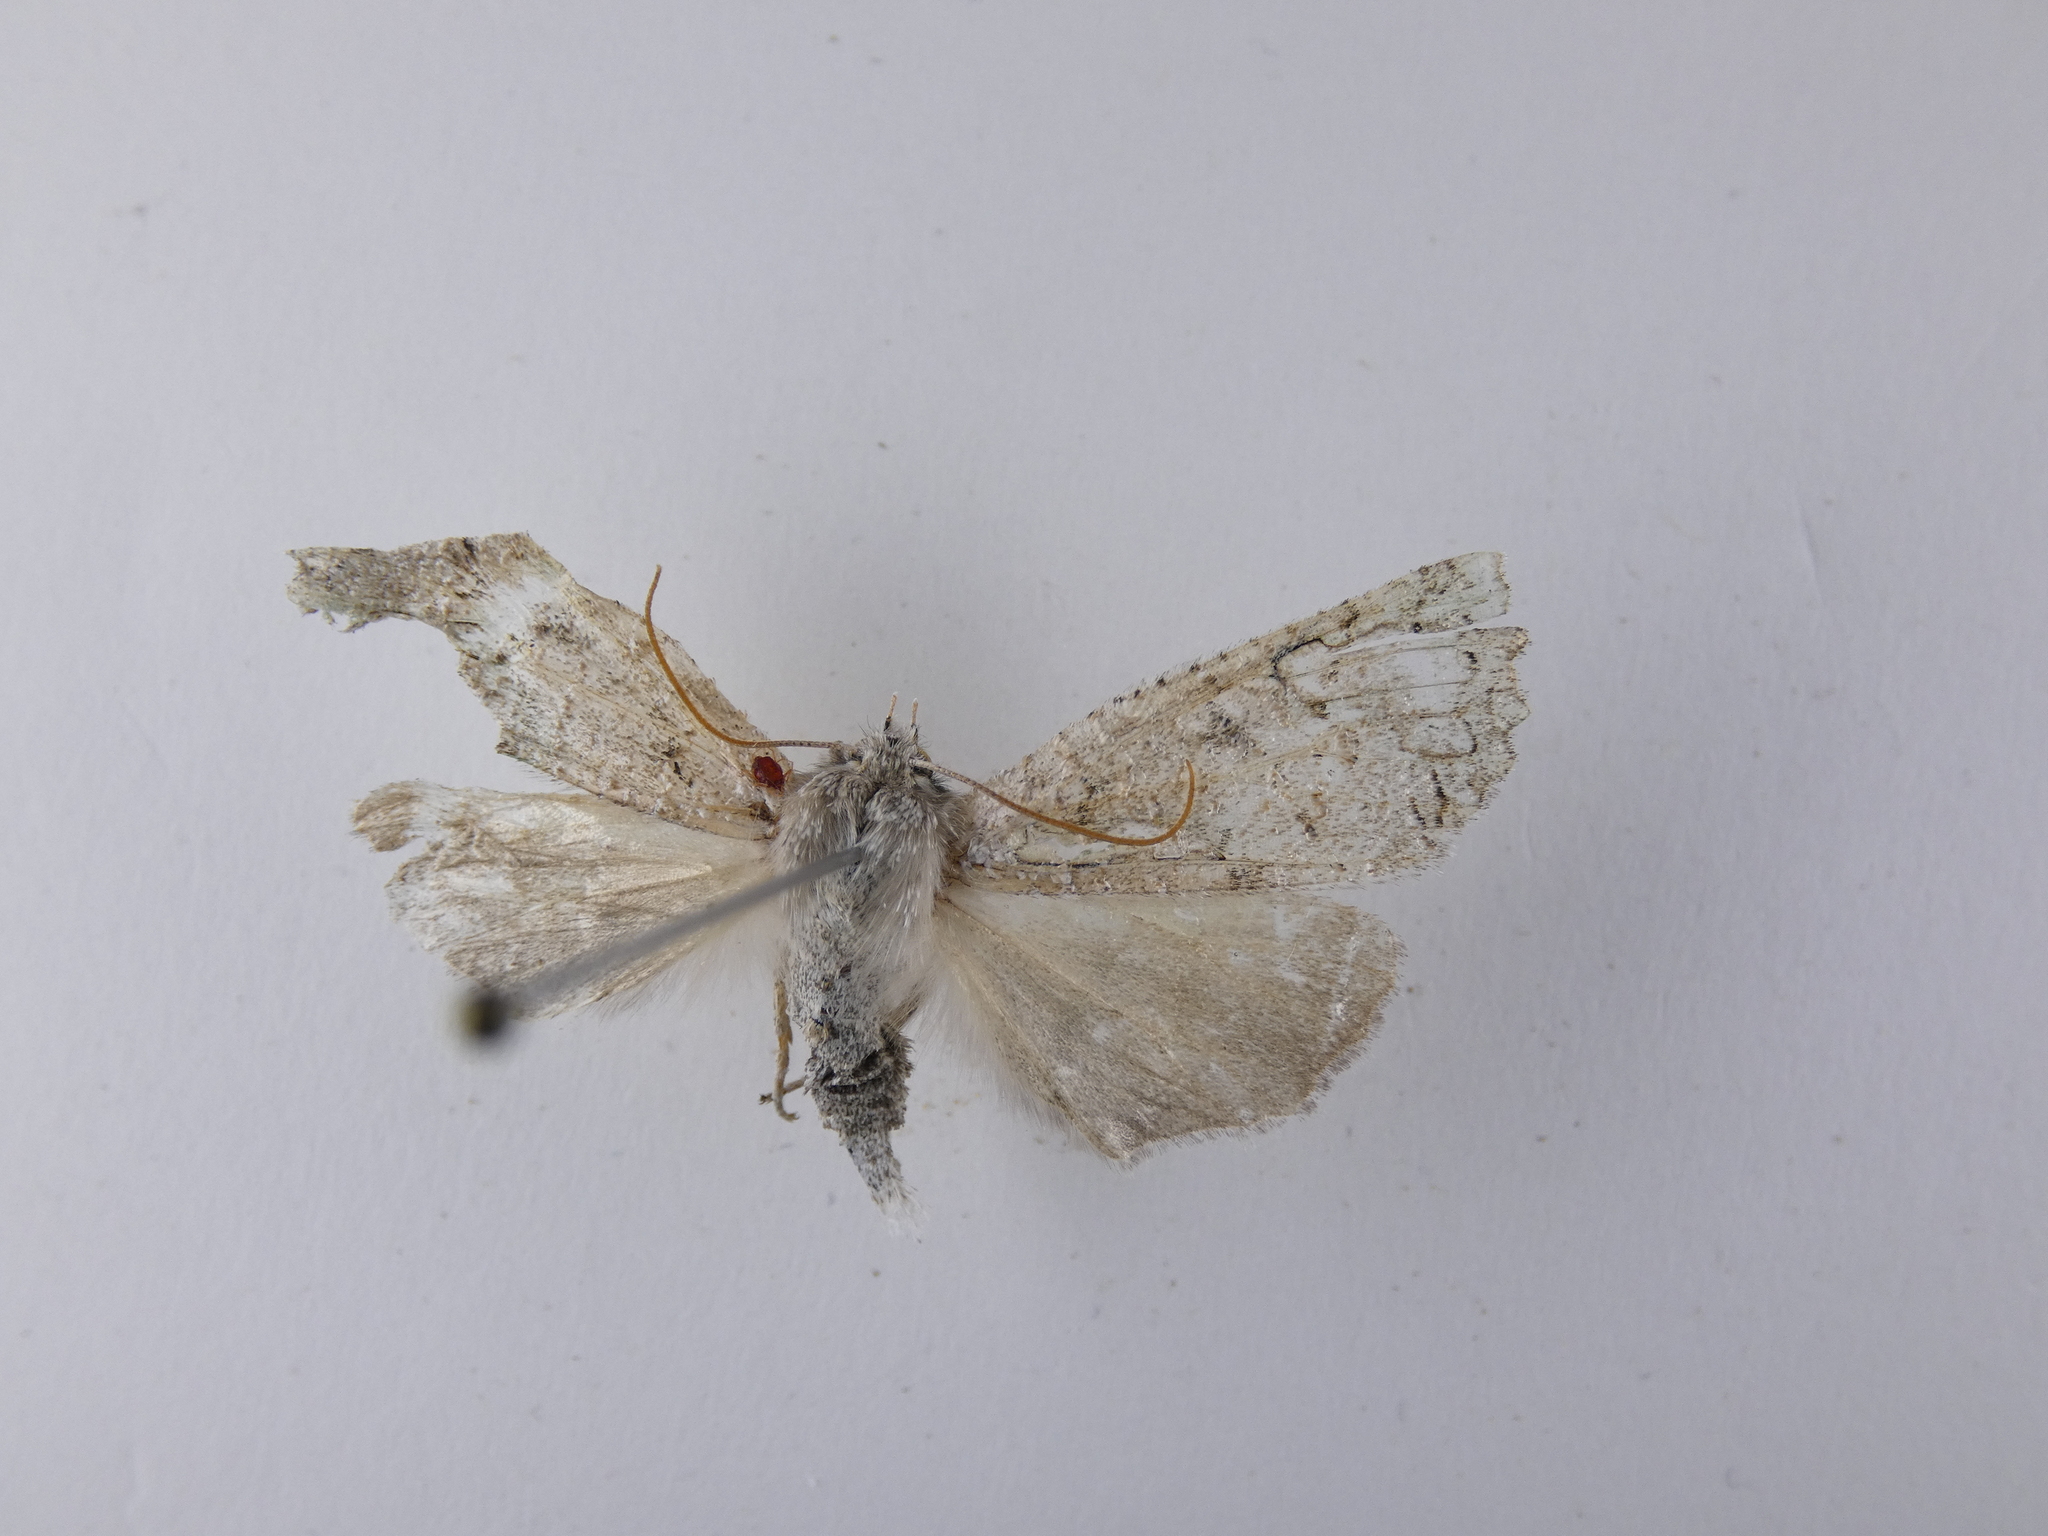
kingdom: Animalia
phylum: Arthropoda
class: Insecta
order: Lepidoptera
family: Geometridae
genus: Declana
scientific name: Declana floccosa
